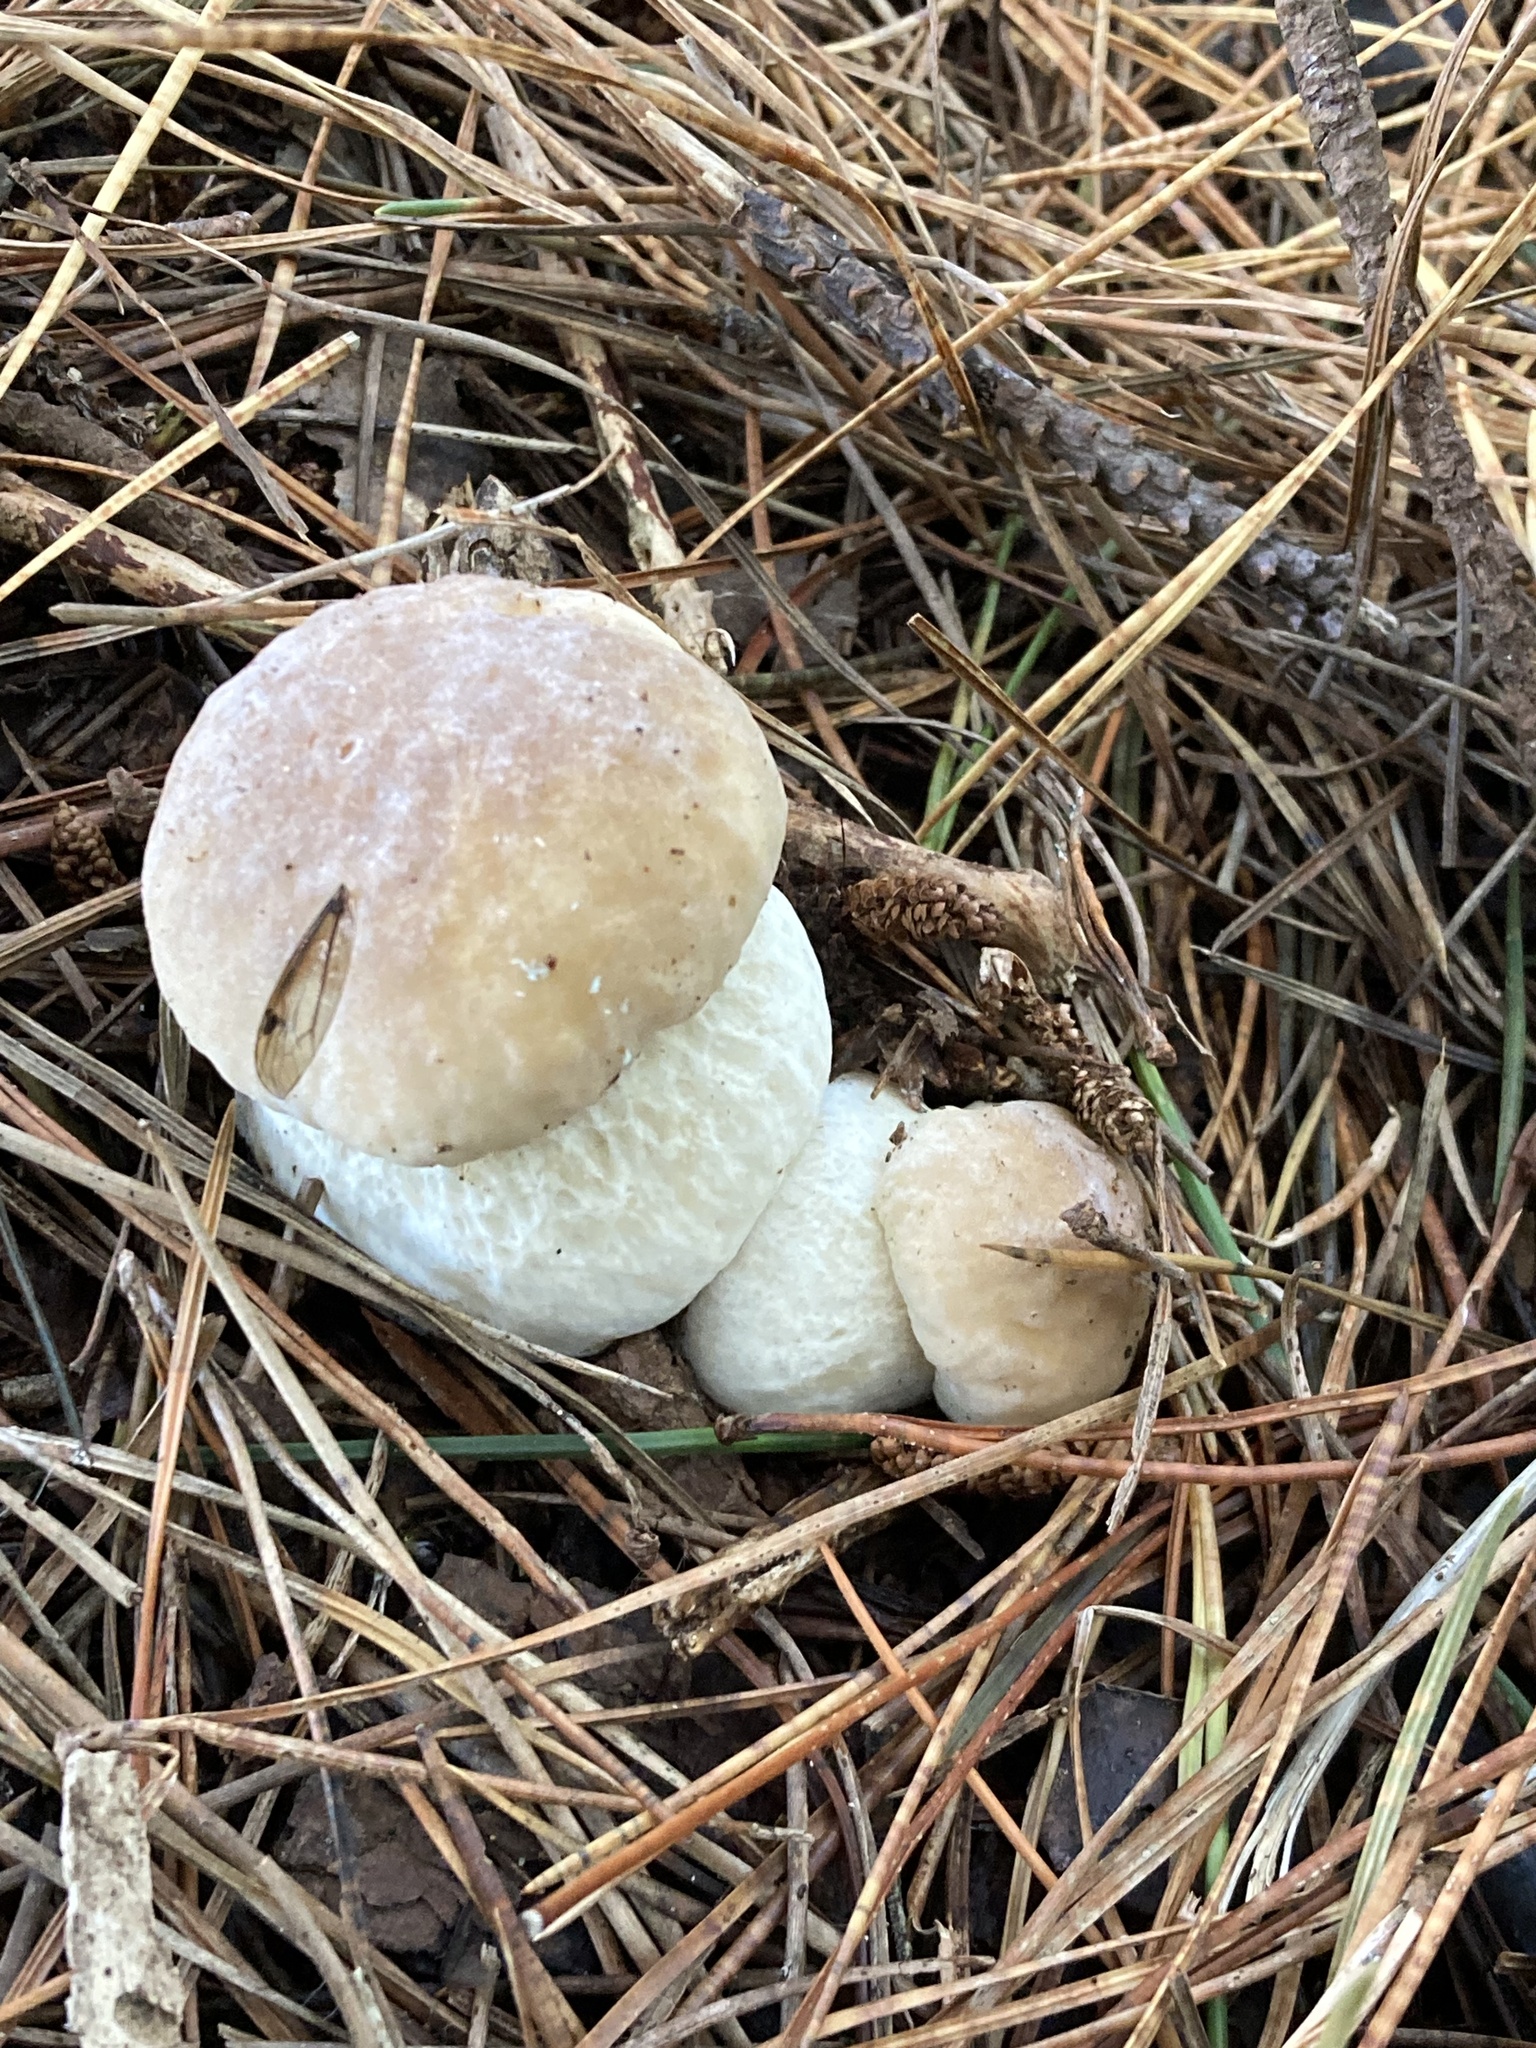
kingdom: Fungi
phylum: Basidiomycota
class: Agaricomycetes
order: Boletales
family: Boletaceae
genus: Boletus
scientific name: Boletus edulis
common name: Cep
